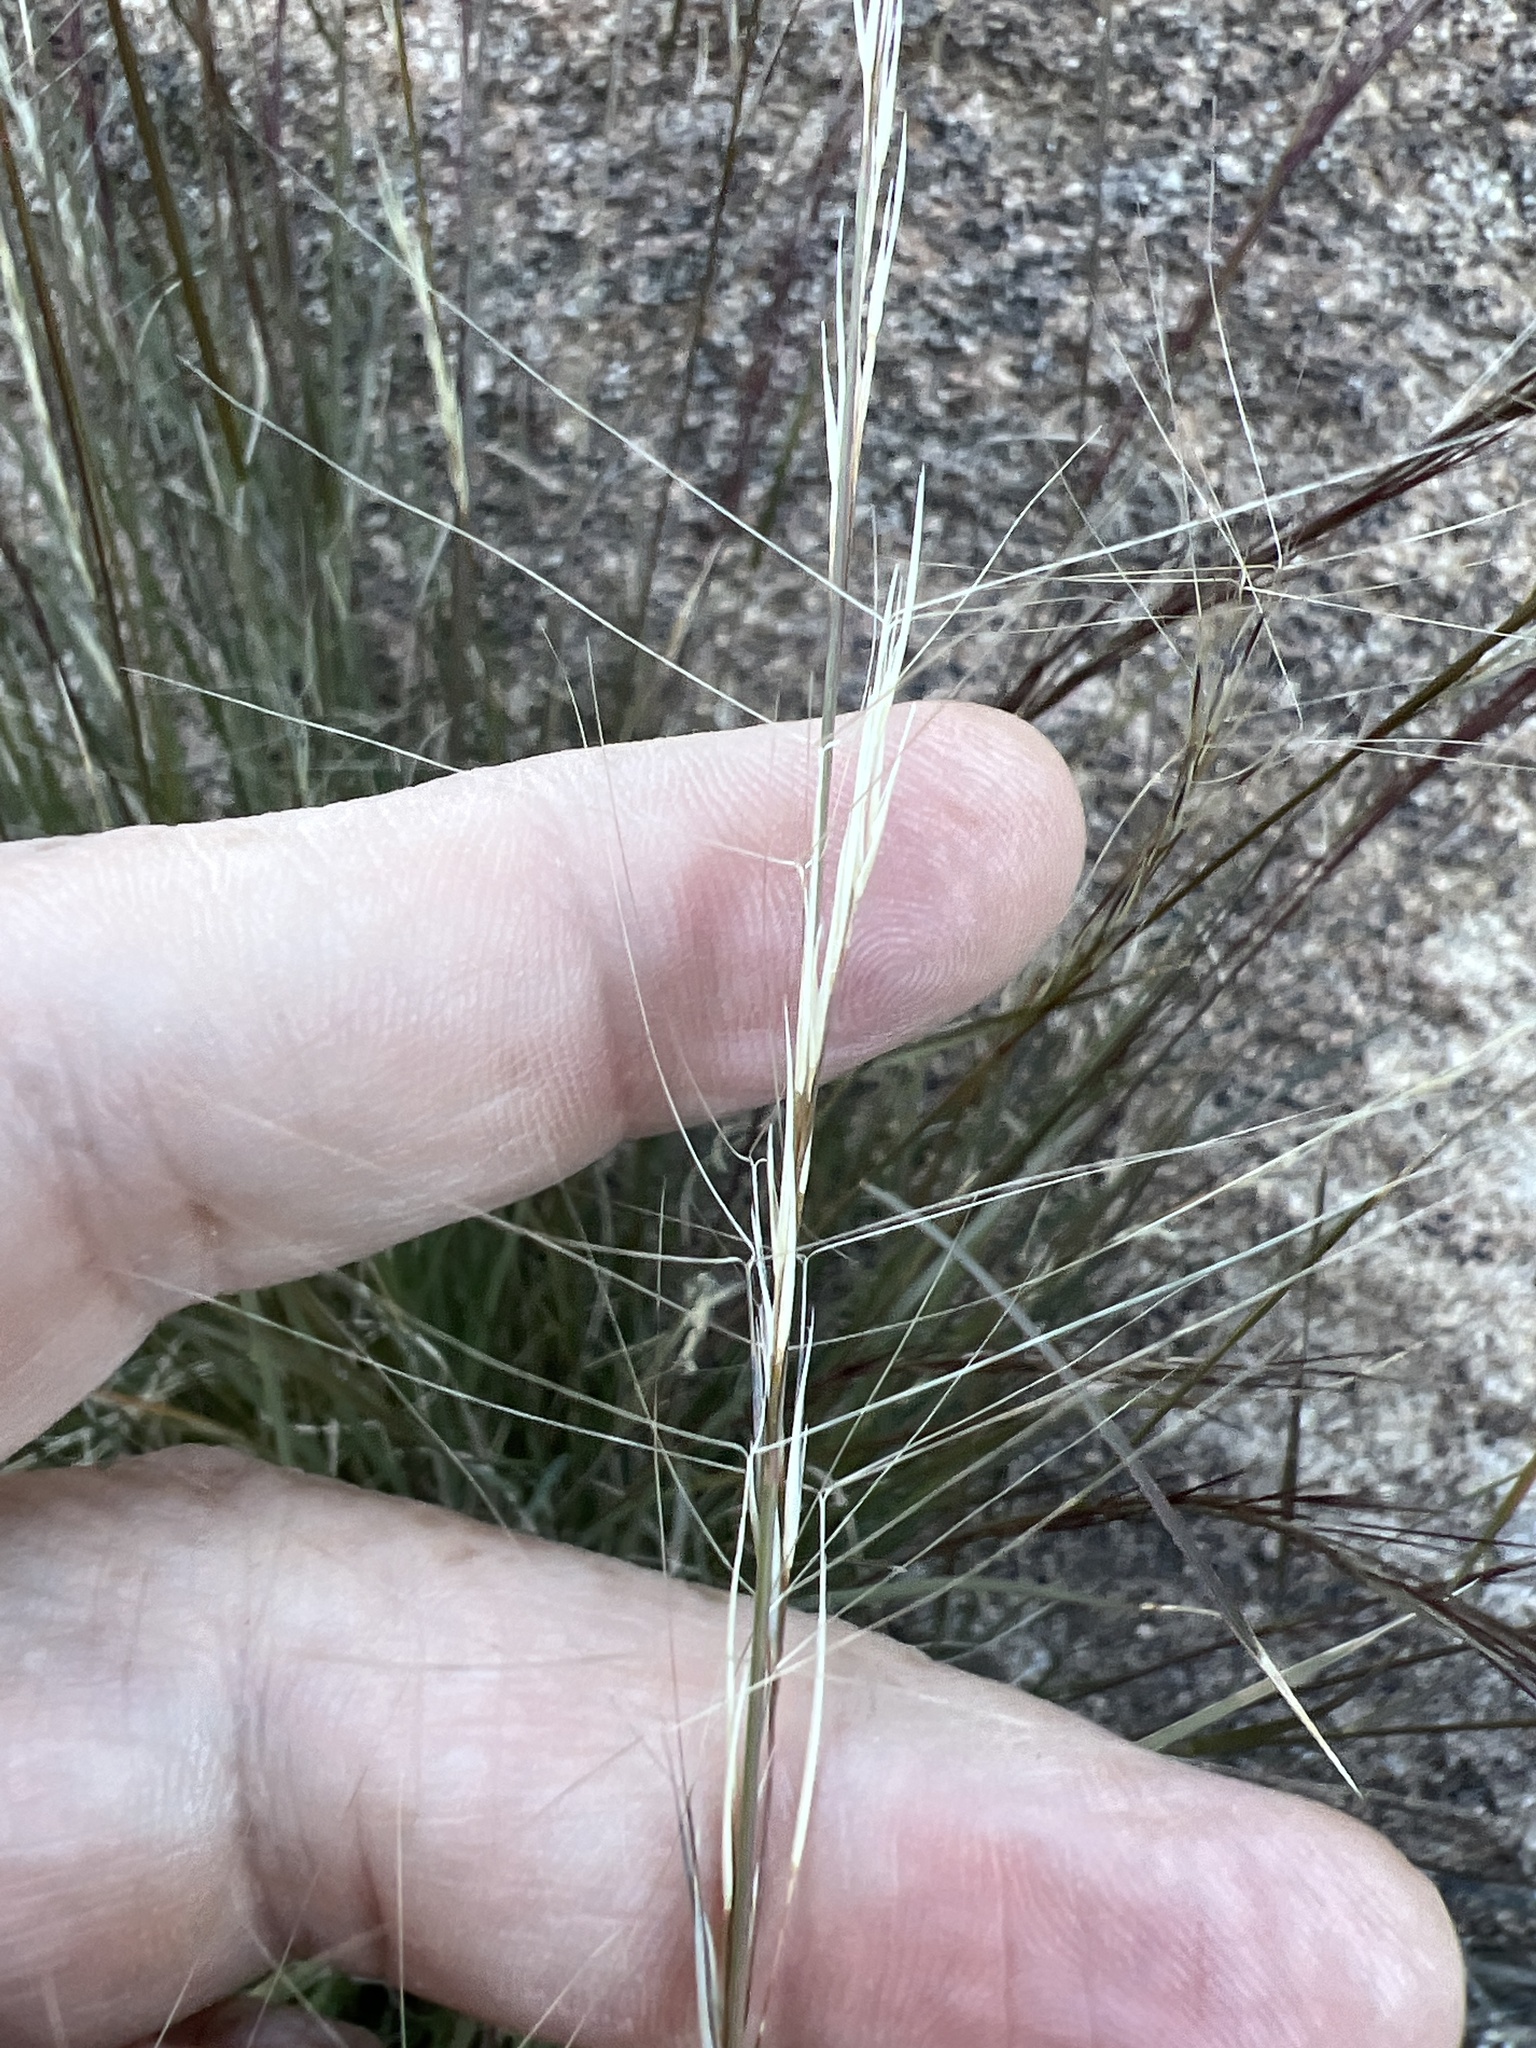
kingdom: Plantae
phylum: Tracheophyta
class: Liliopsida
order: Poales
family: Poaceae
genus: Aristida
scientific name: Aristida purpurea
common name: Purple threeawn
